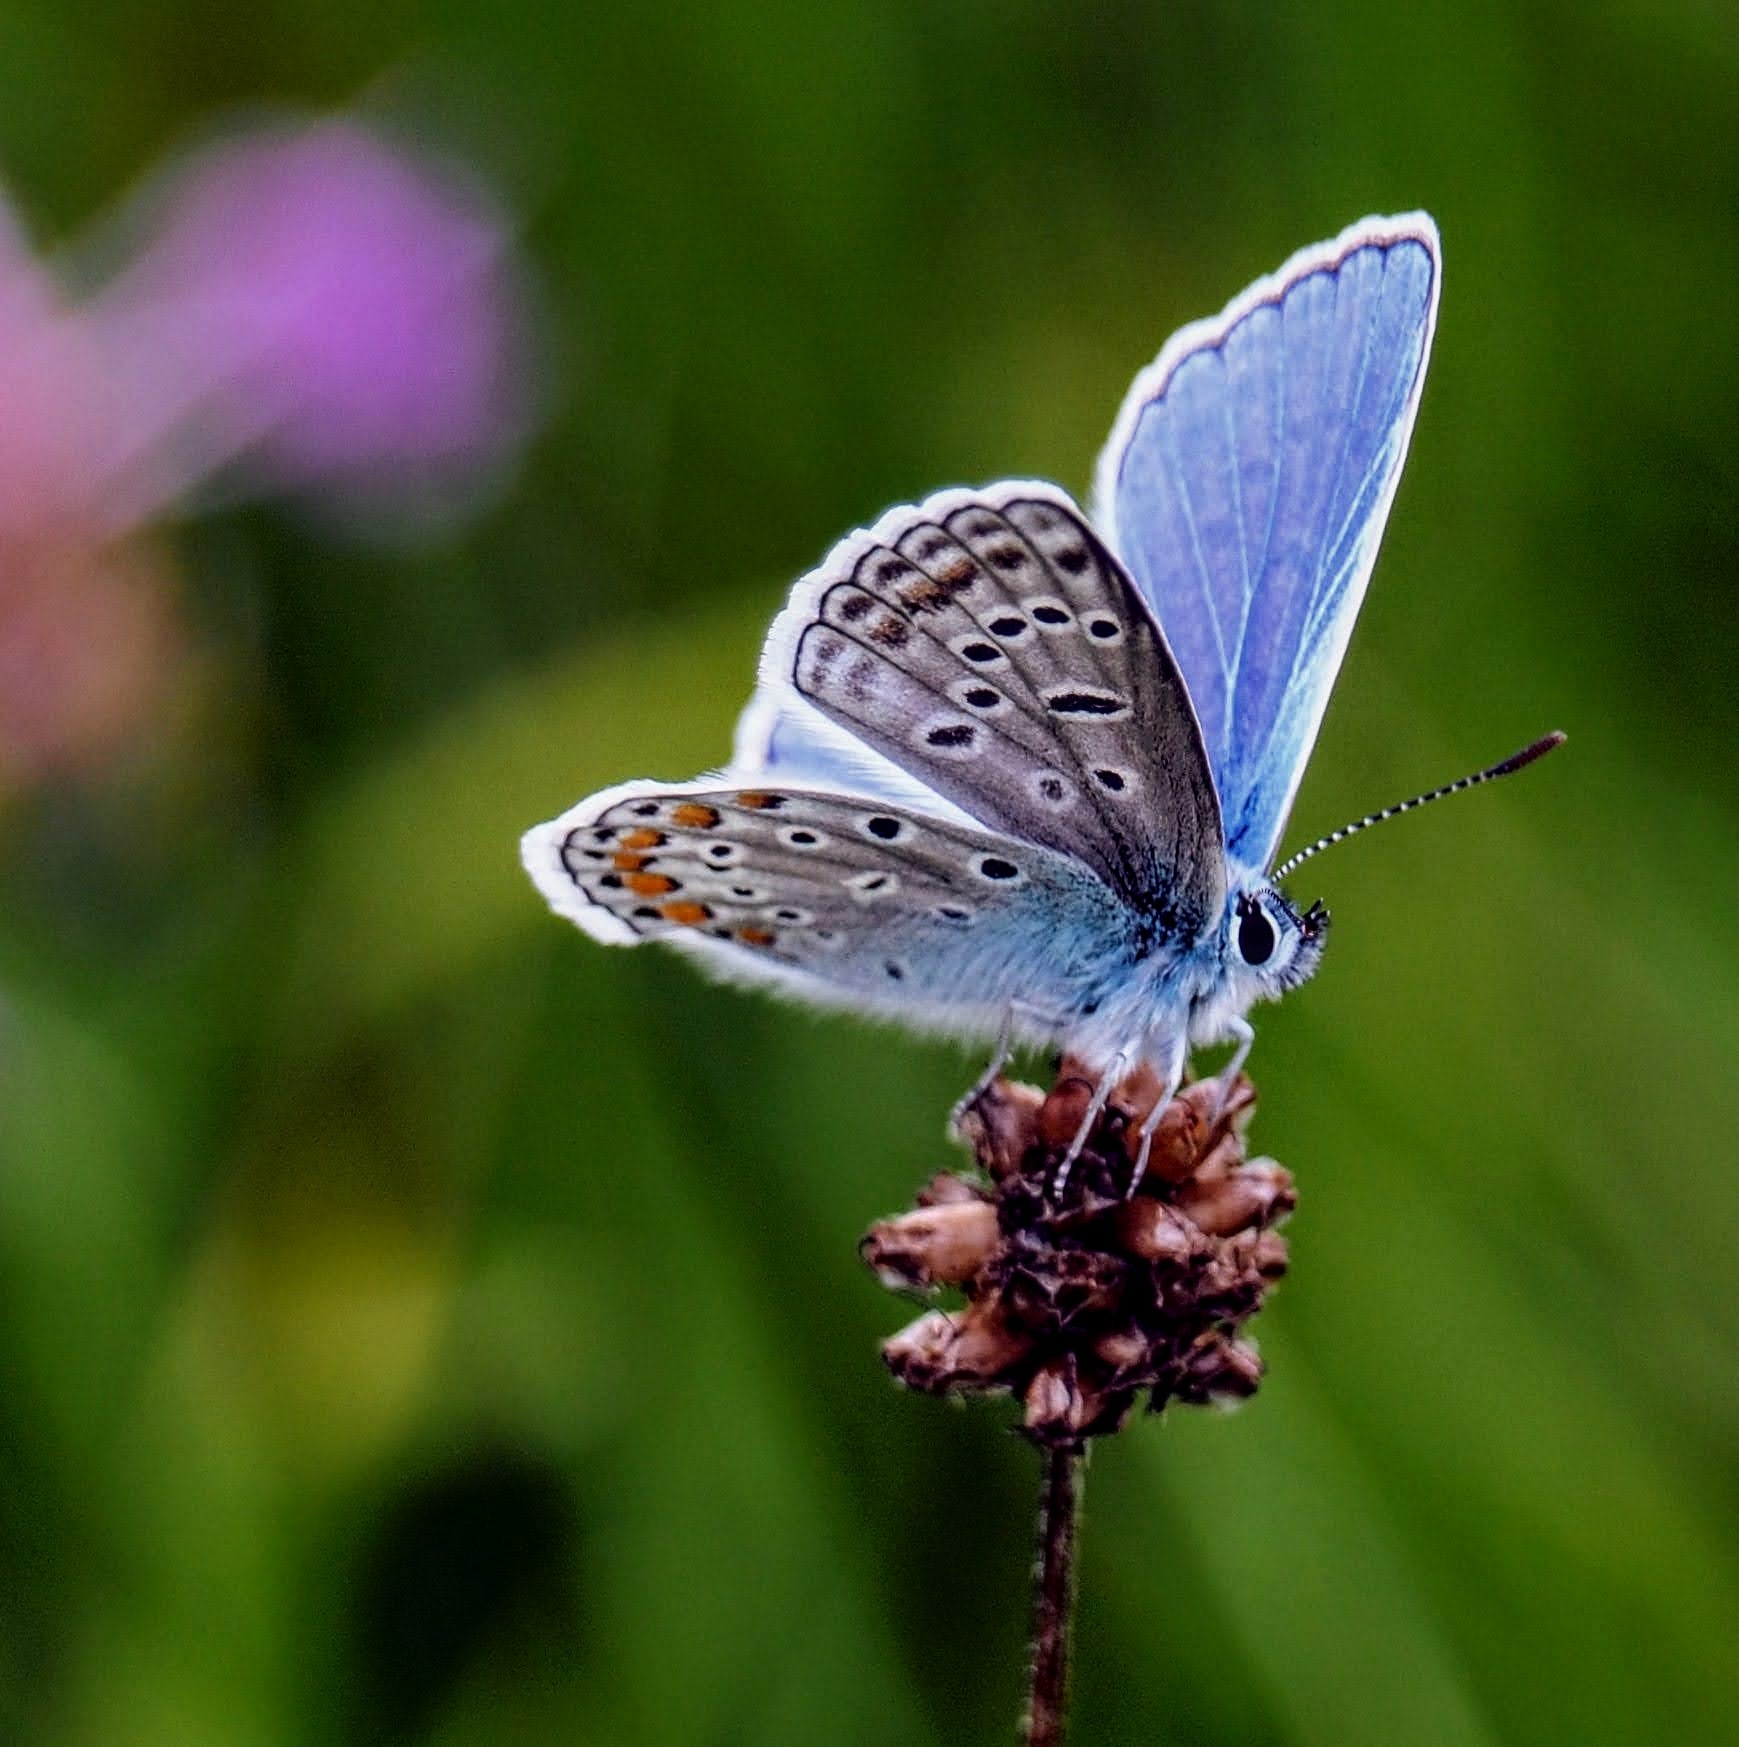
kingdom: Animalia
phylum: Arthropoda
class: Insecta
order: Lepidoptera
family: Lycaenidae
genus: Polyommatus
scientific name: Polyommatus icarus
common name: Common blue
